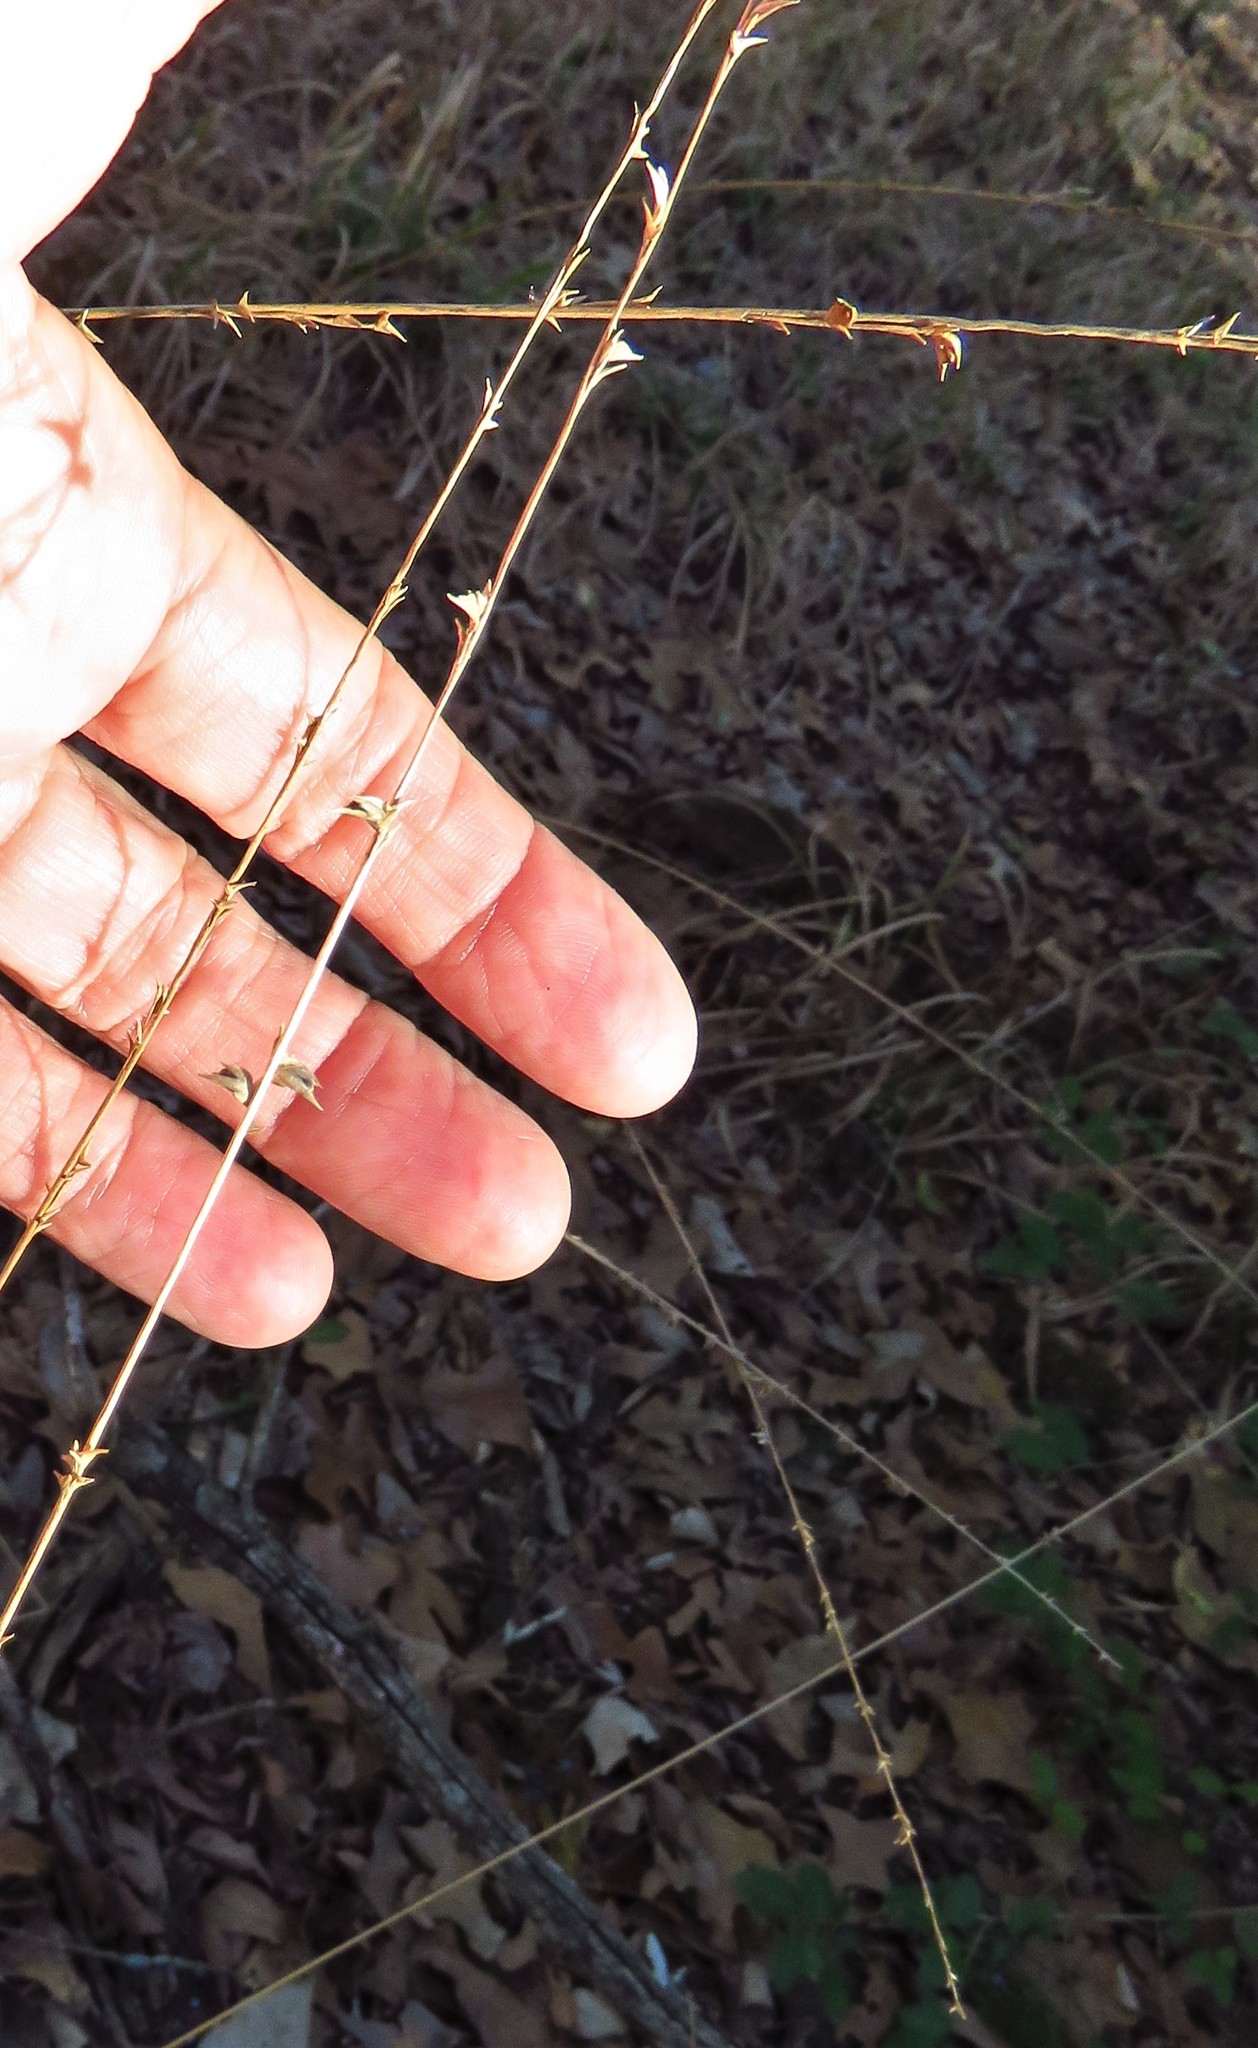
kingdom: Plantae
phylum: Tracheophyta
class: Liliopsida
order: Poales
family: Poaceae
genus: Chasmanthium
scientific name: Chasmanthium laxum
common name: Slender chasmanthium
